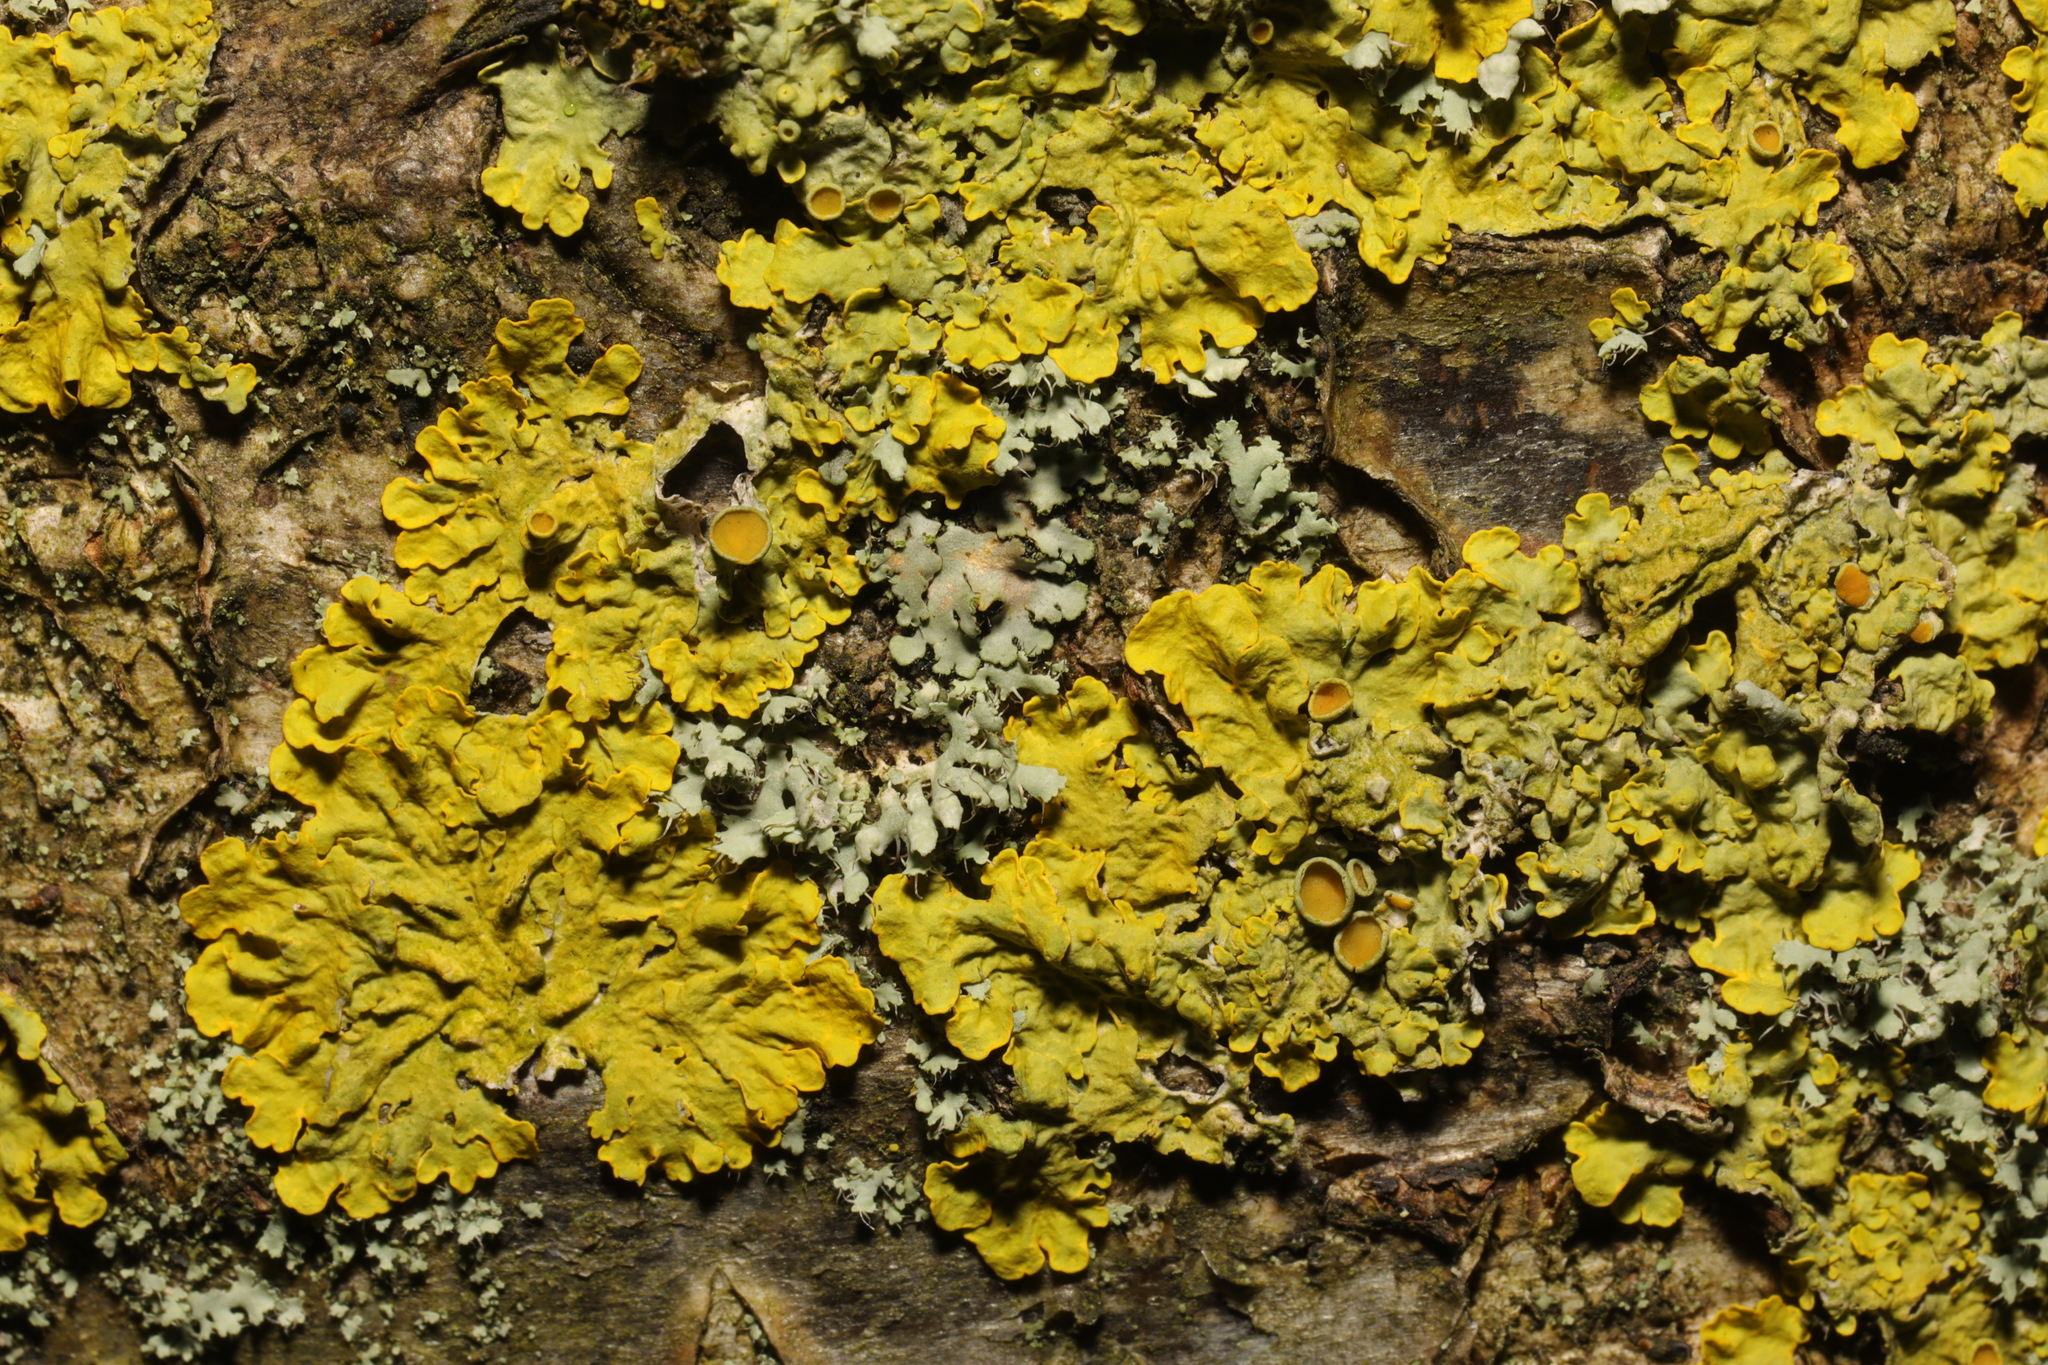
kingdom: Fungi
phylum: Ascomycota
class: Lecanoromycetes
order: Teloschistales
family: Teloschistaceae
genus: Xanthoria
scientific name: Xanthoria parietina
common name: Common orange lichen
